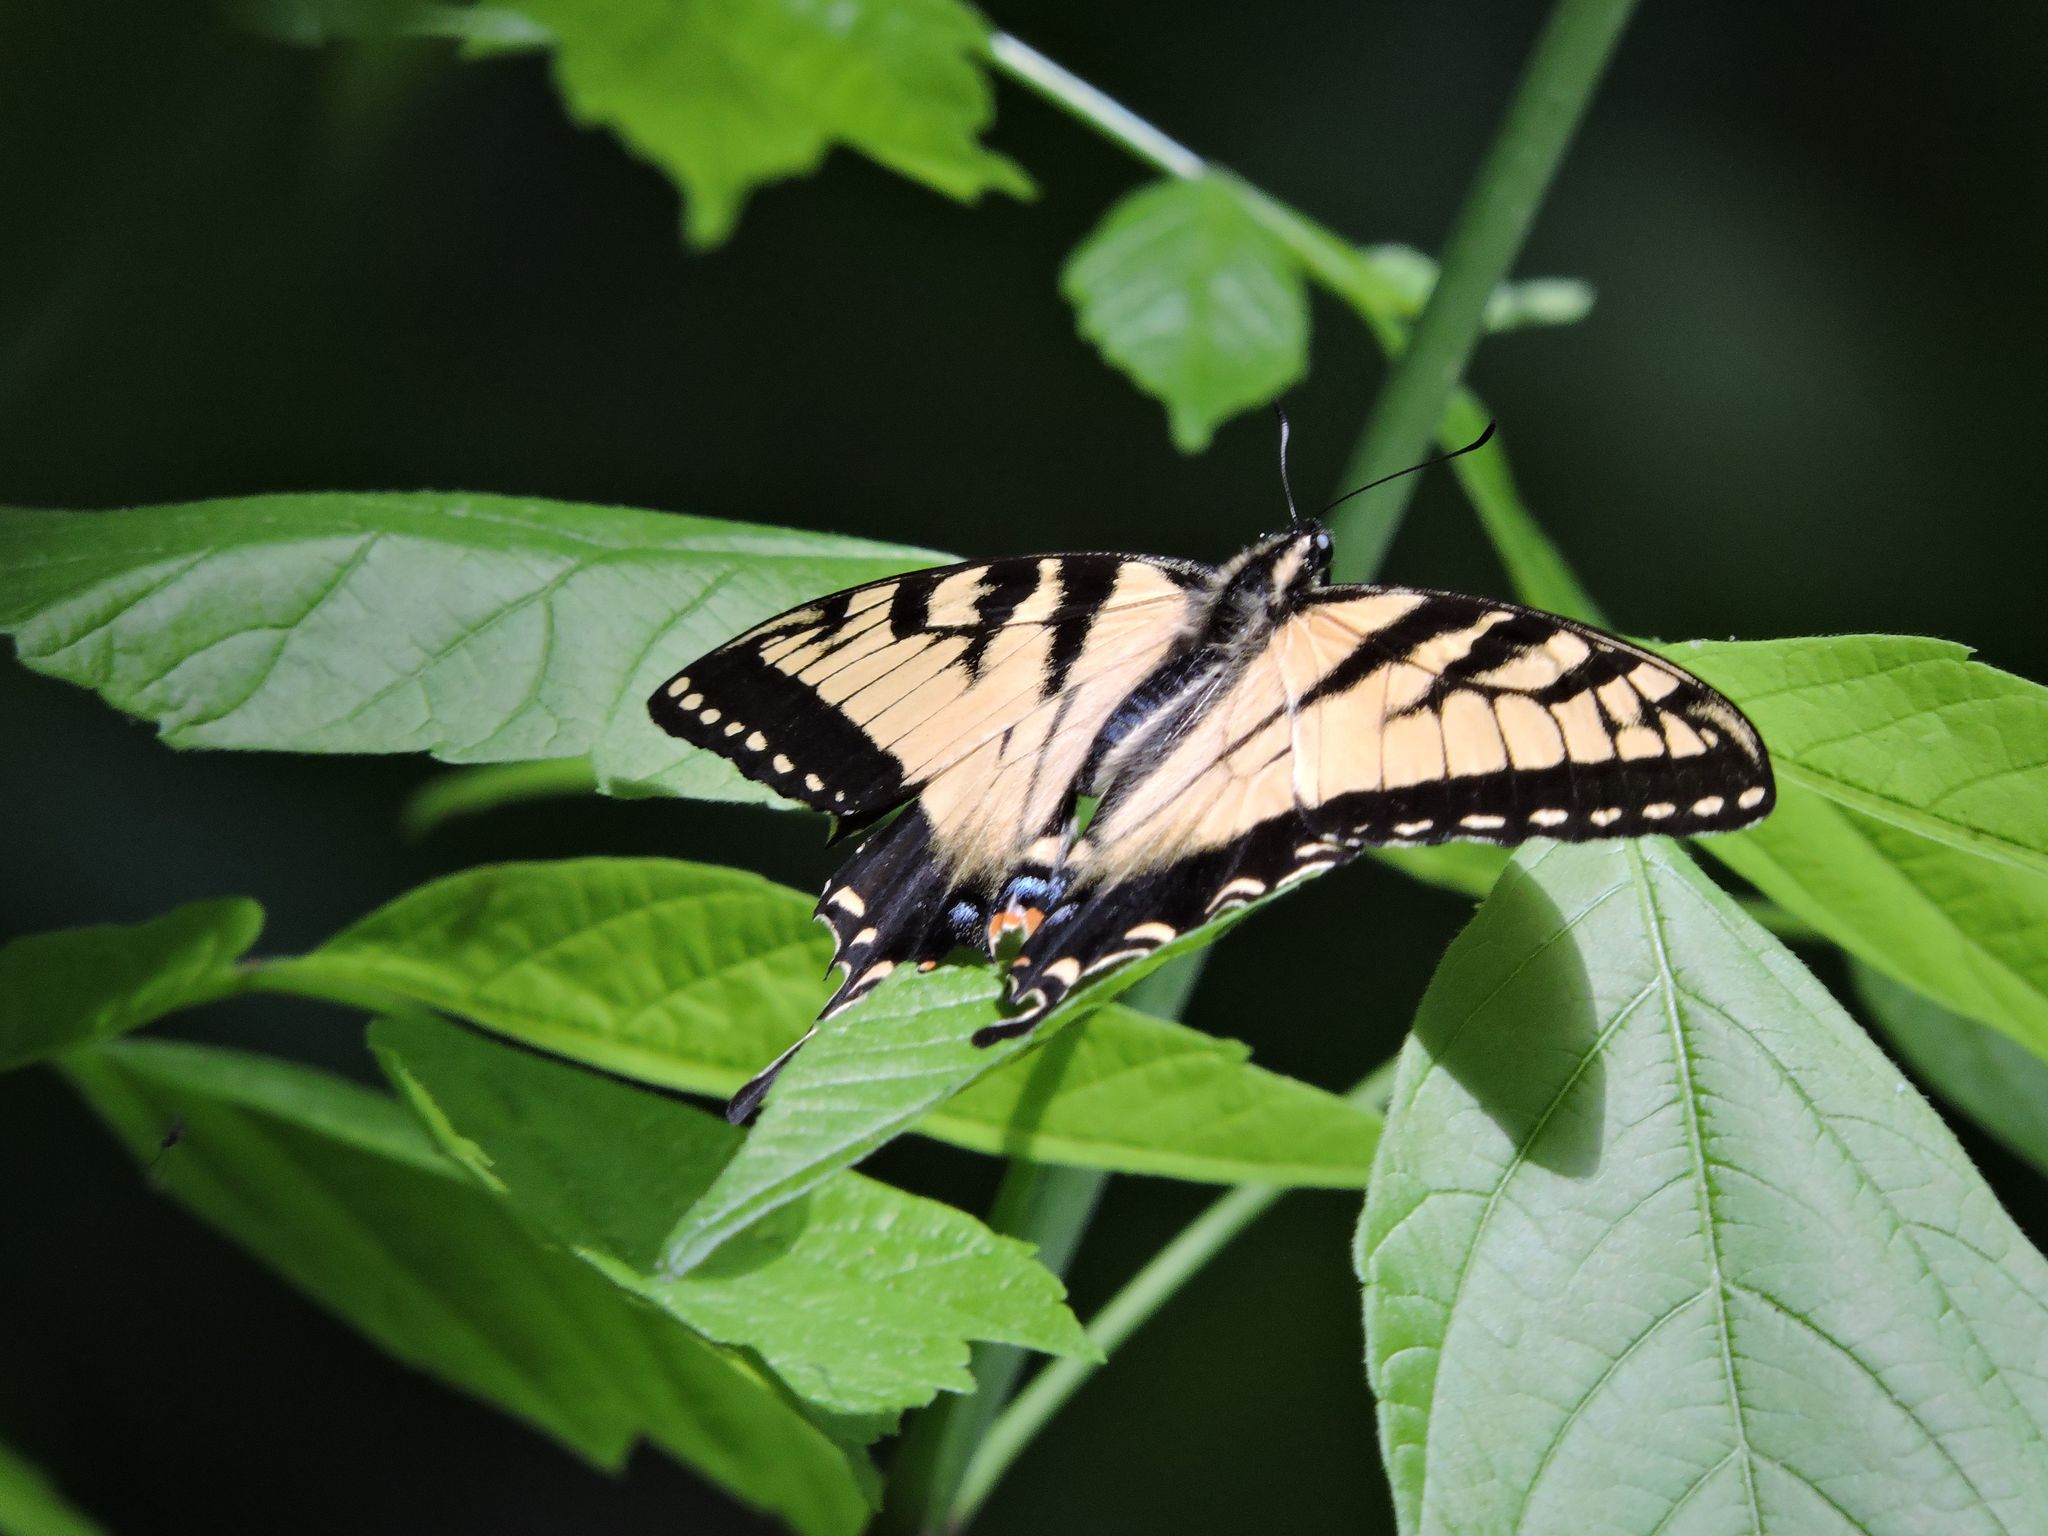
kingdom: Animalia
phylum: Arthropoda
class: Insecta
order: Lepidoptera
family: Papilionidae
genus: Papilio
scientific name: Papilio glaucus
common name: Tiger swallowtail
